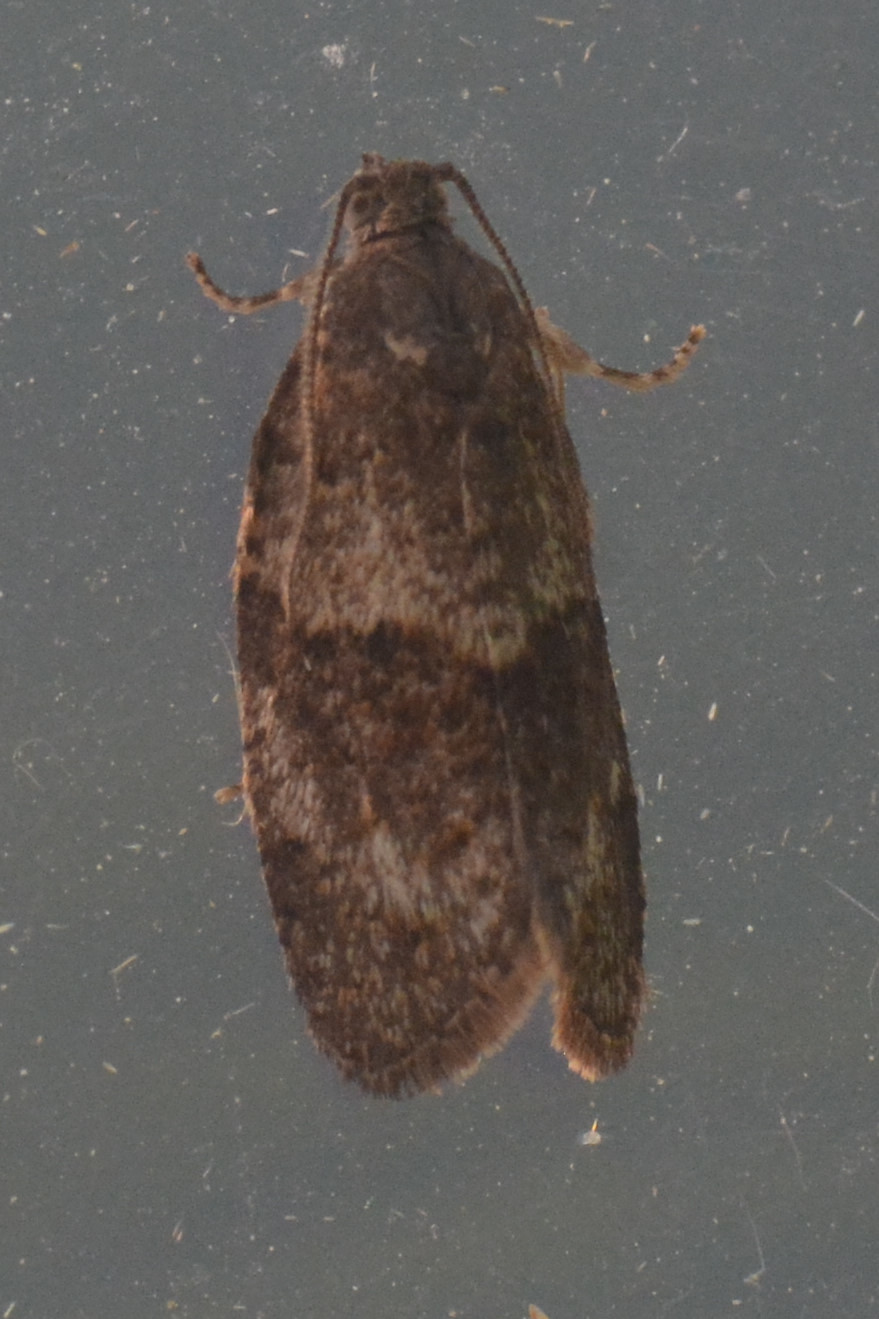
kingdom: Animalia
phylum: Arthropoda
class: Insecta
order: Lepidoptera
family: Tortricidae
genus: Syndemis
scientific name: Syndemis musculana
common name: Dark-barred twist
